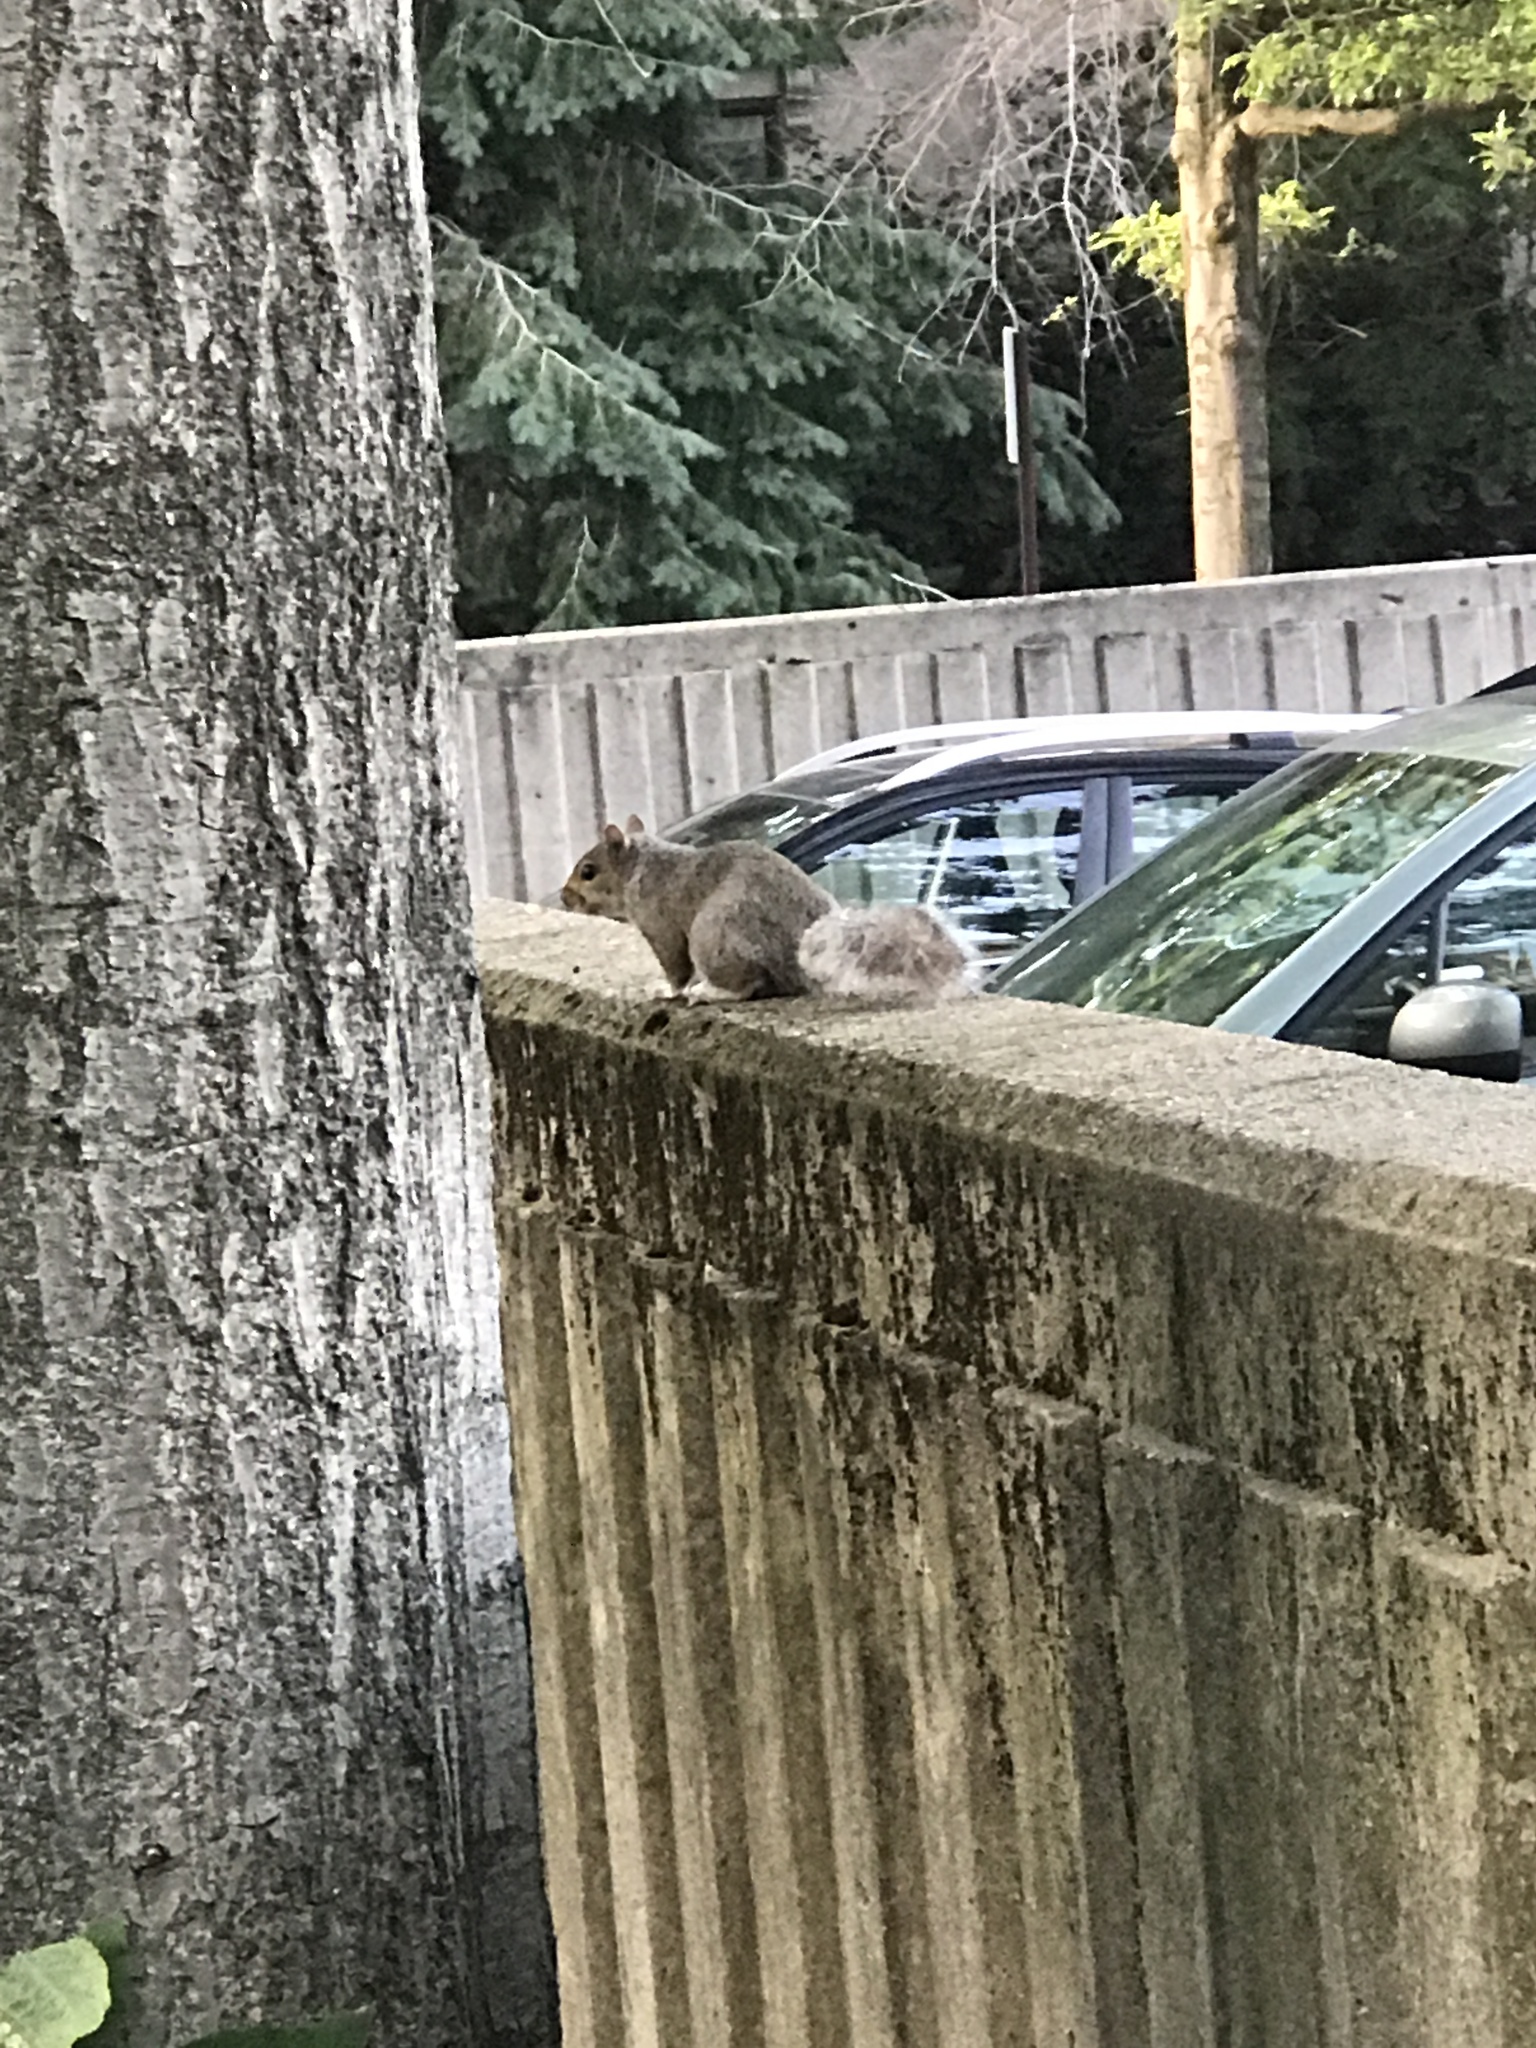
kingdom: Animalia
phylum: Chordata
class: Mammalia
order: Rodentia
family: Sciuridae
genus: Sciurus
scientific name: Sciurus carolinensis
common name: Eastern gray squirrel
